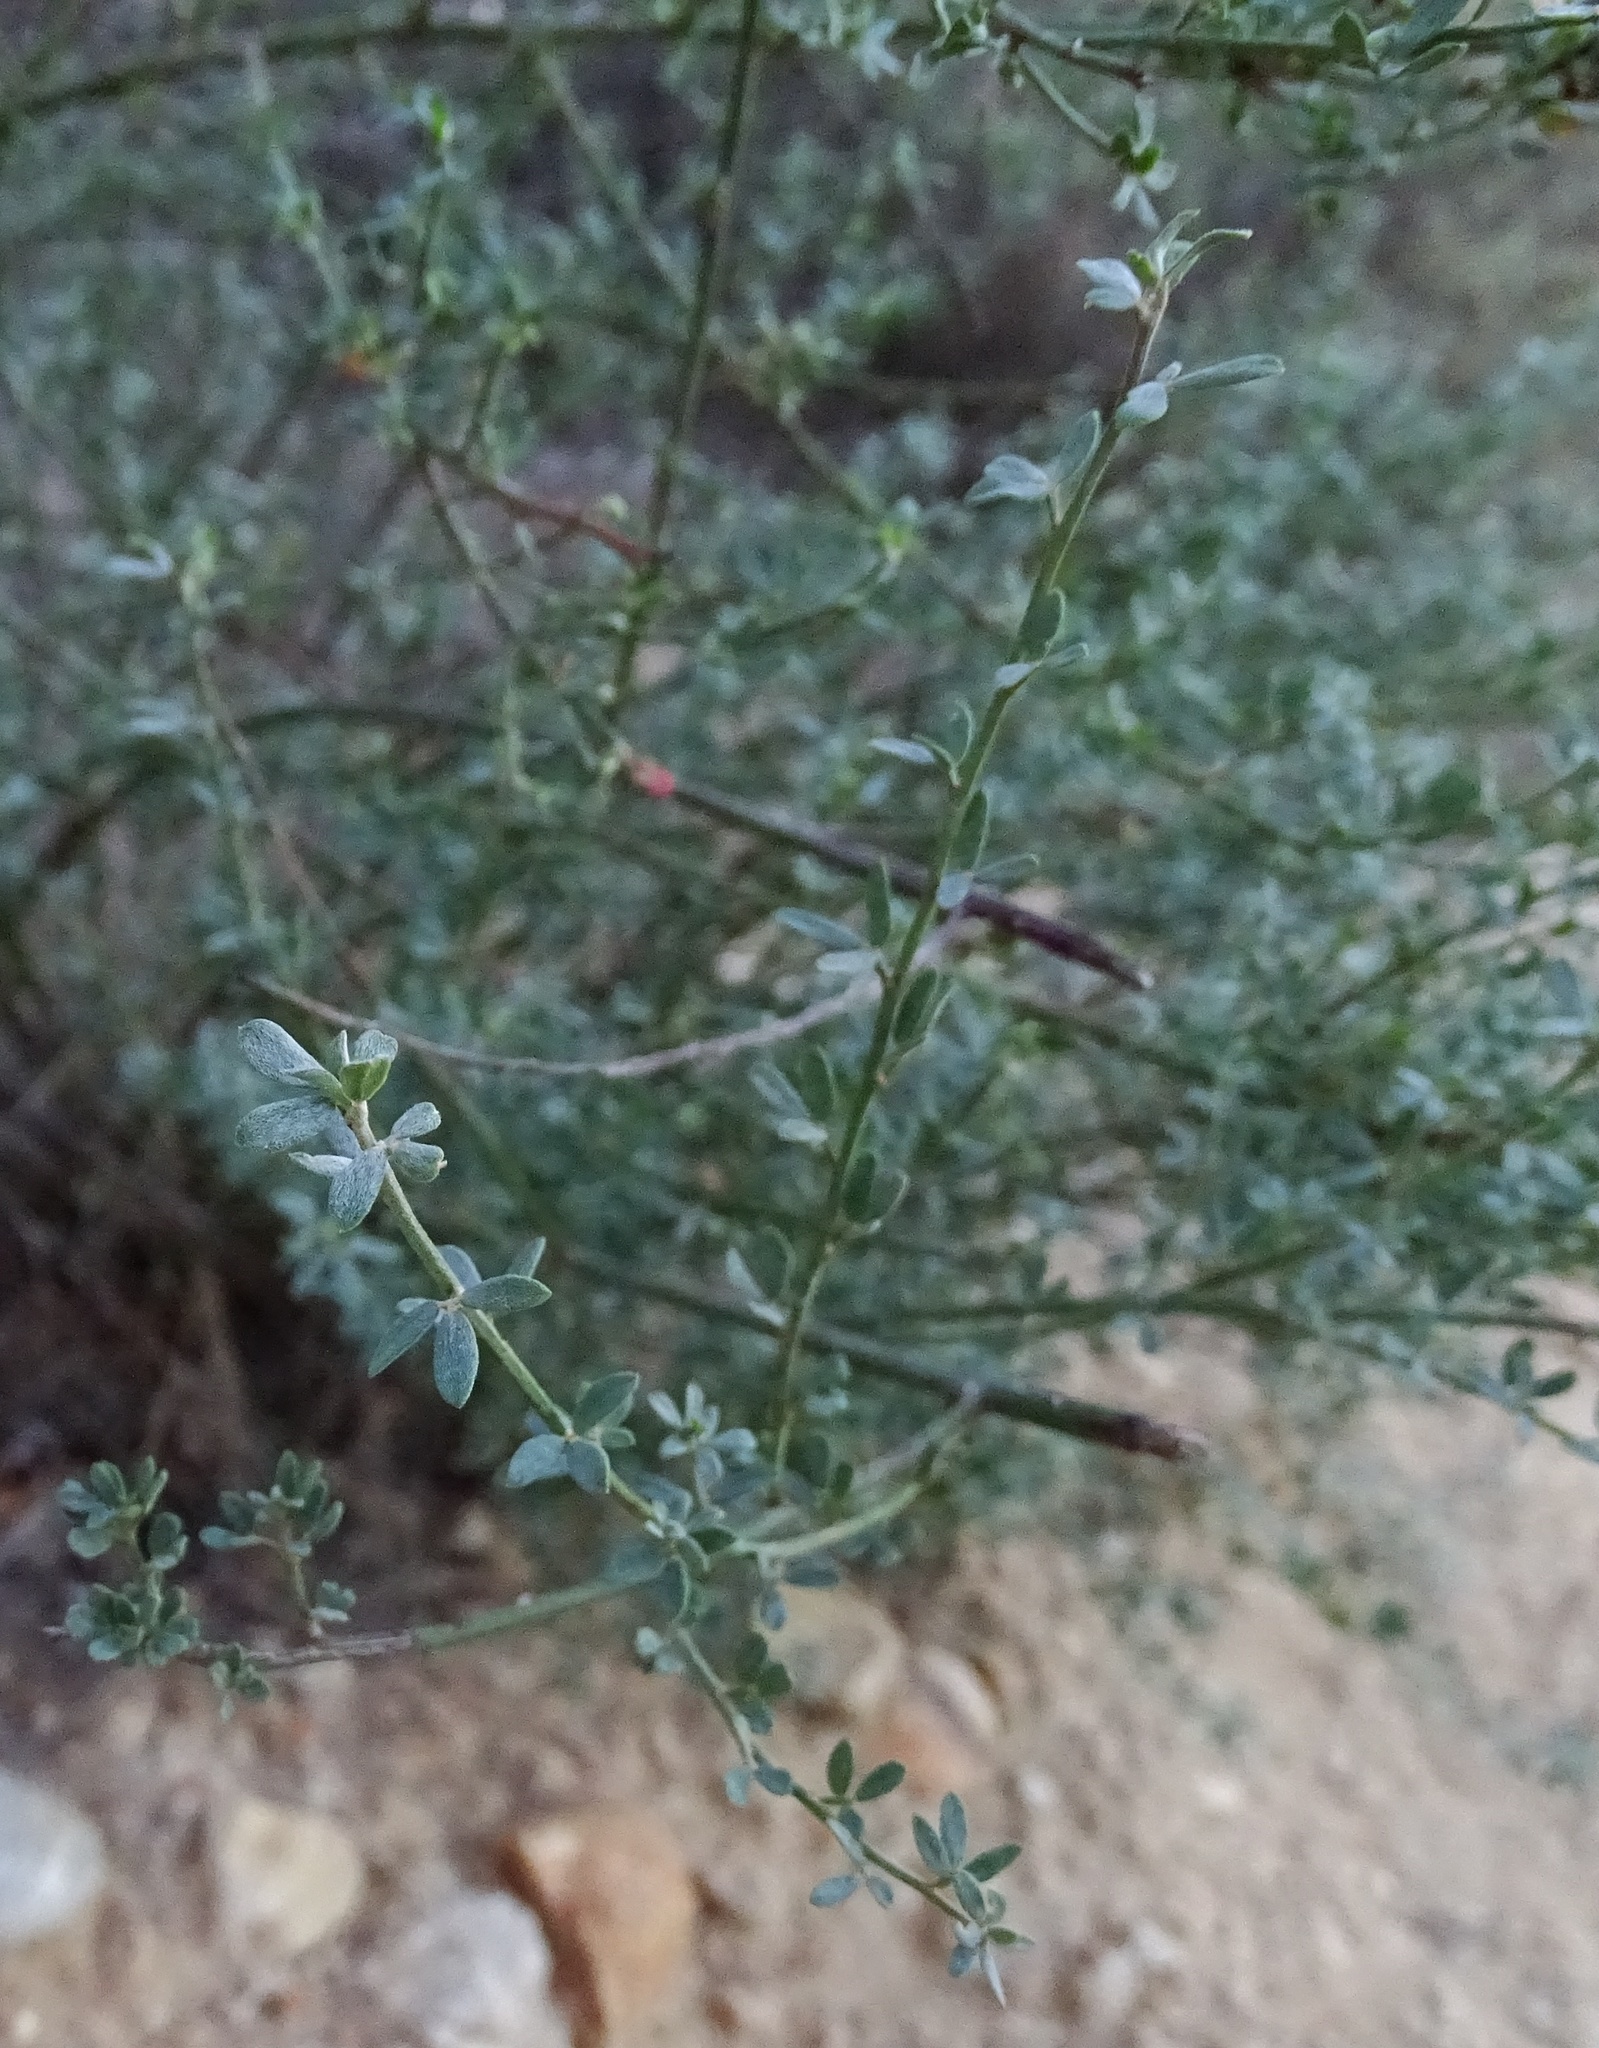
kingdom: Plantae
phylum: Tracheophyta
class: Magnoliopsida
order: Fabales
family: Fabaceae
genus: Acmispon
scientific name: Acmispon glaber
